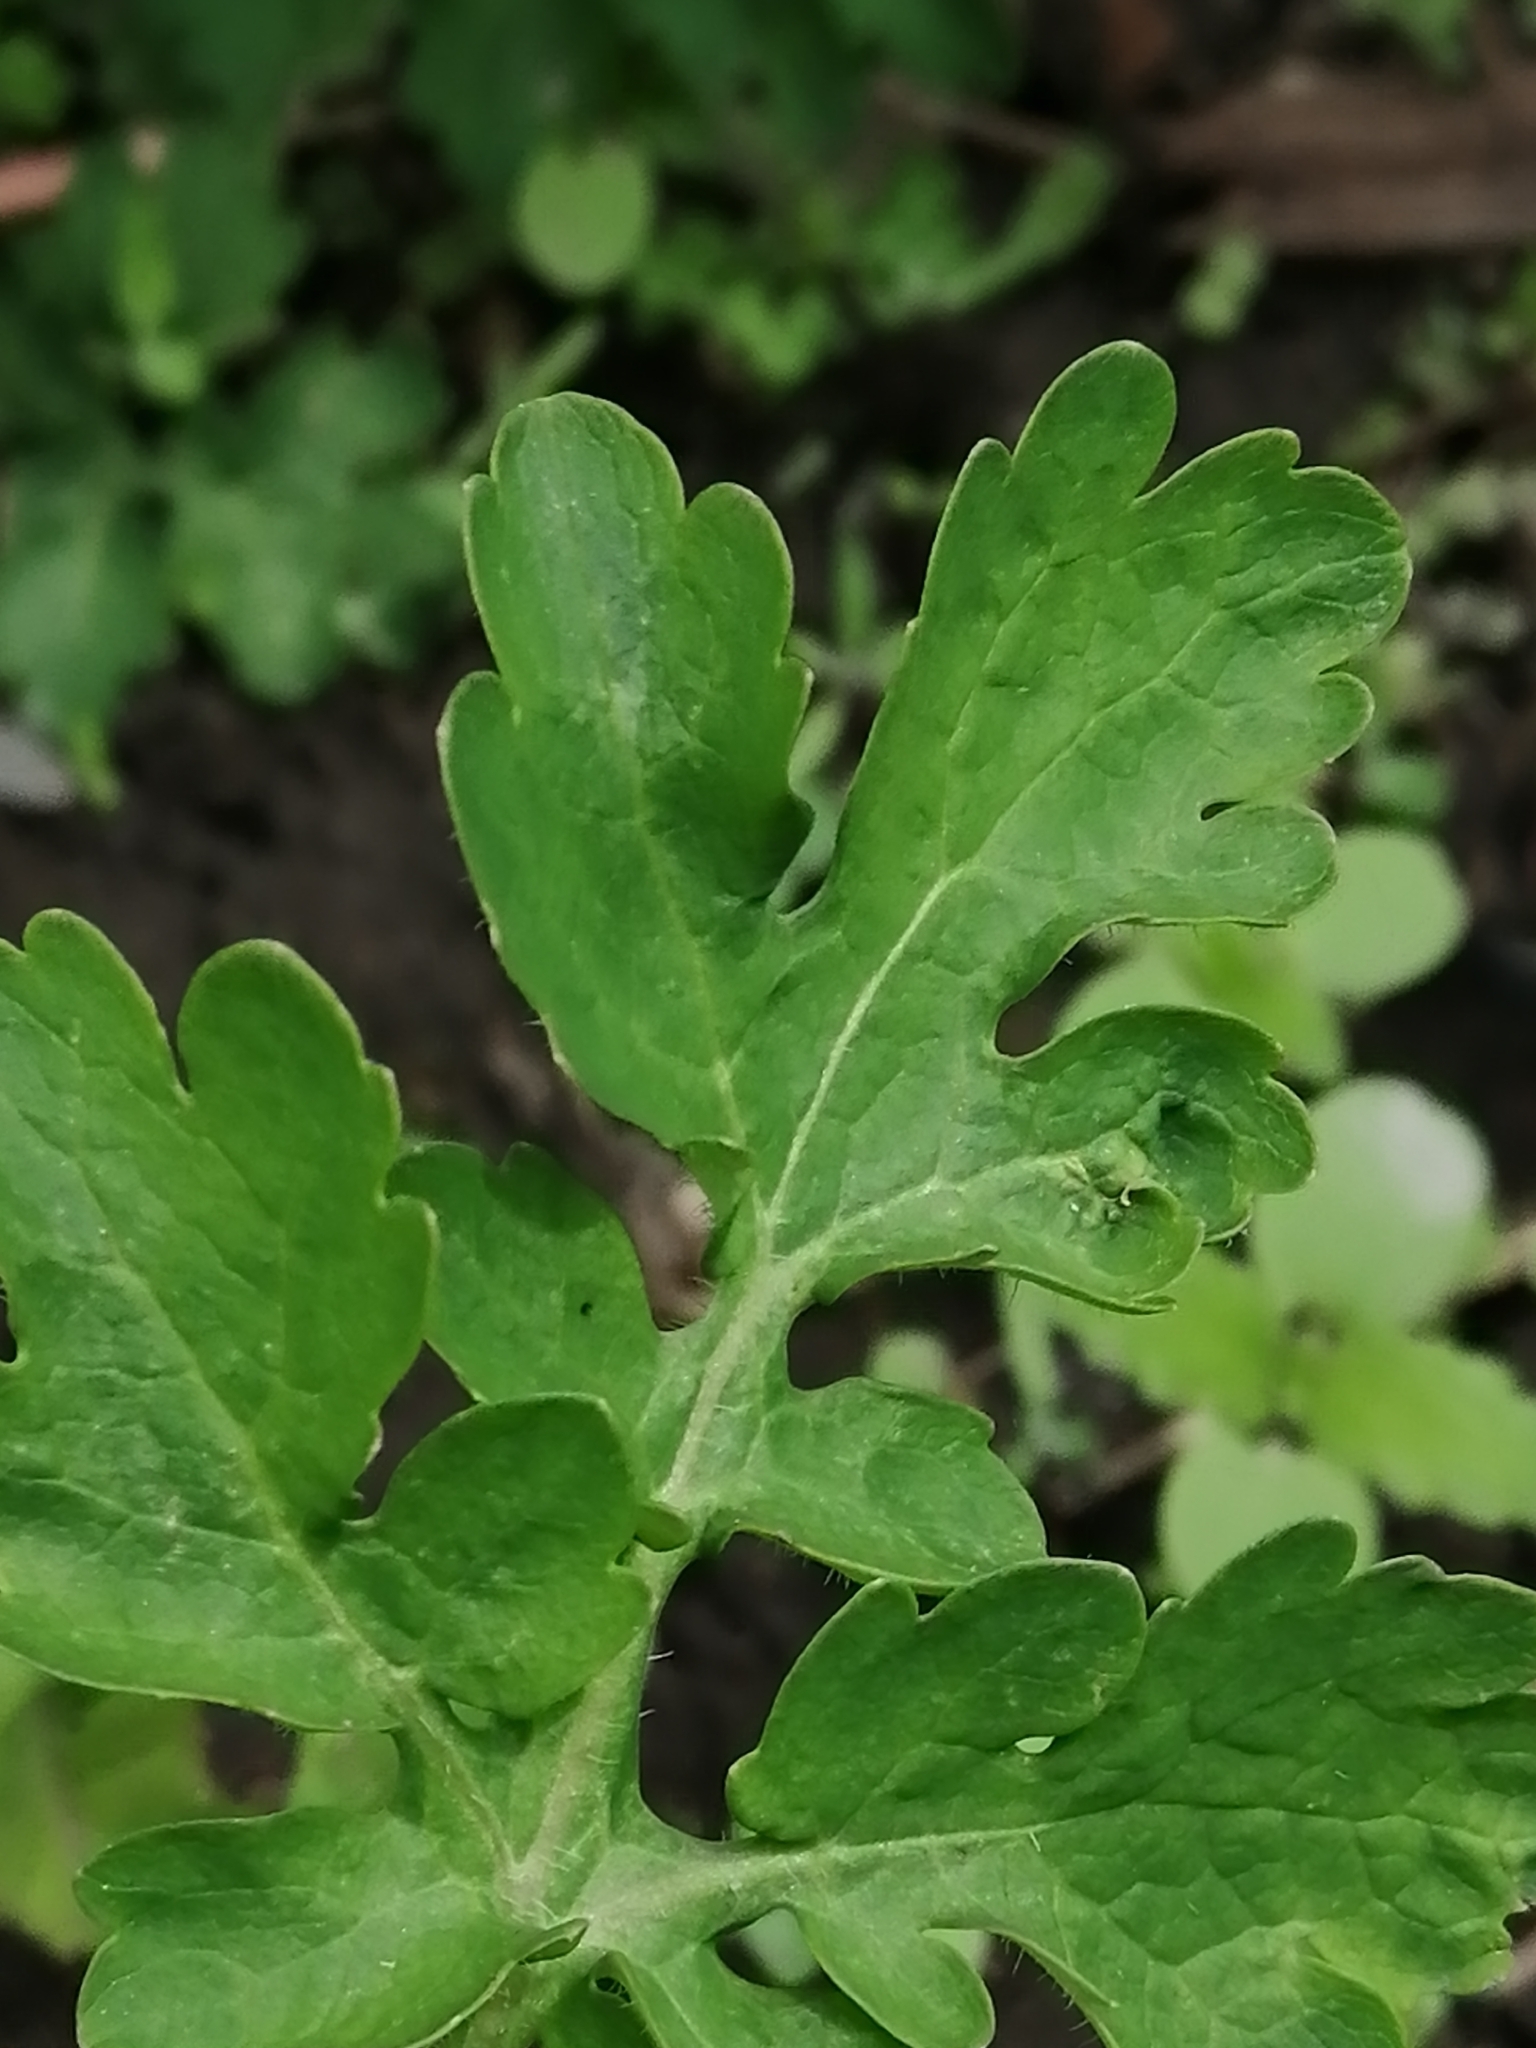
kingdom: Plantae
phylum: Tracheophyta
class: Magnoliopsida
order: Ranunculales
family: Papaveraceae
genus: Chelidonium
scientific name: Chelidonium majus
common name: Greater celandine
